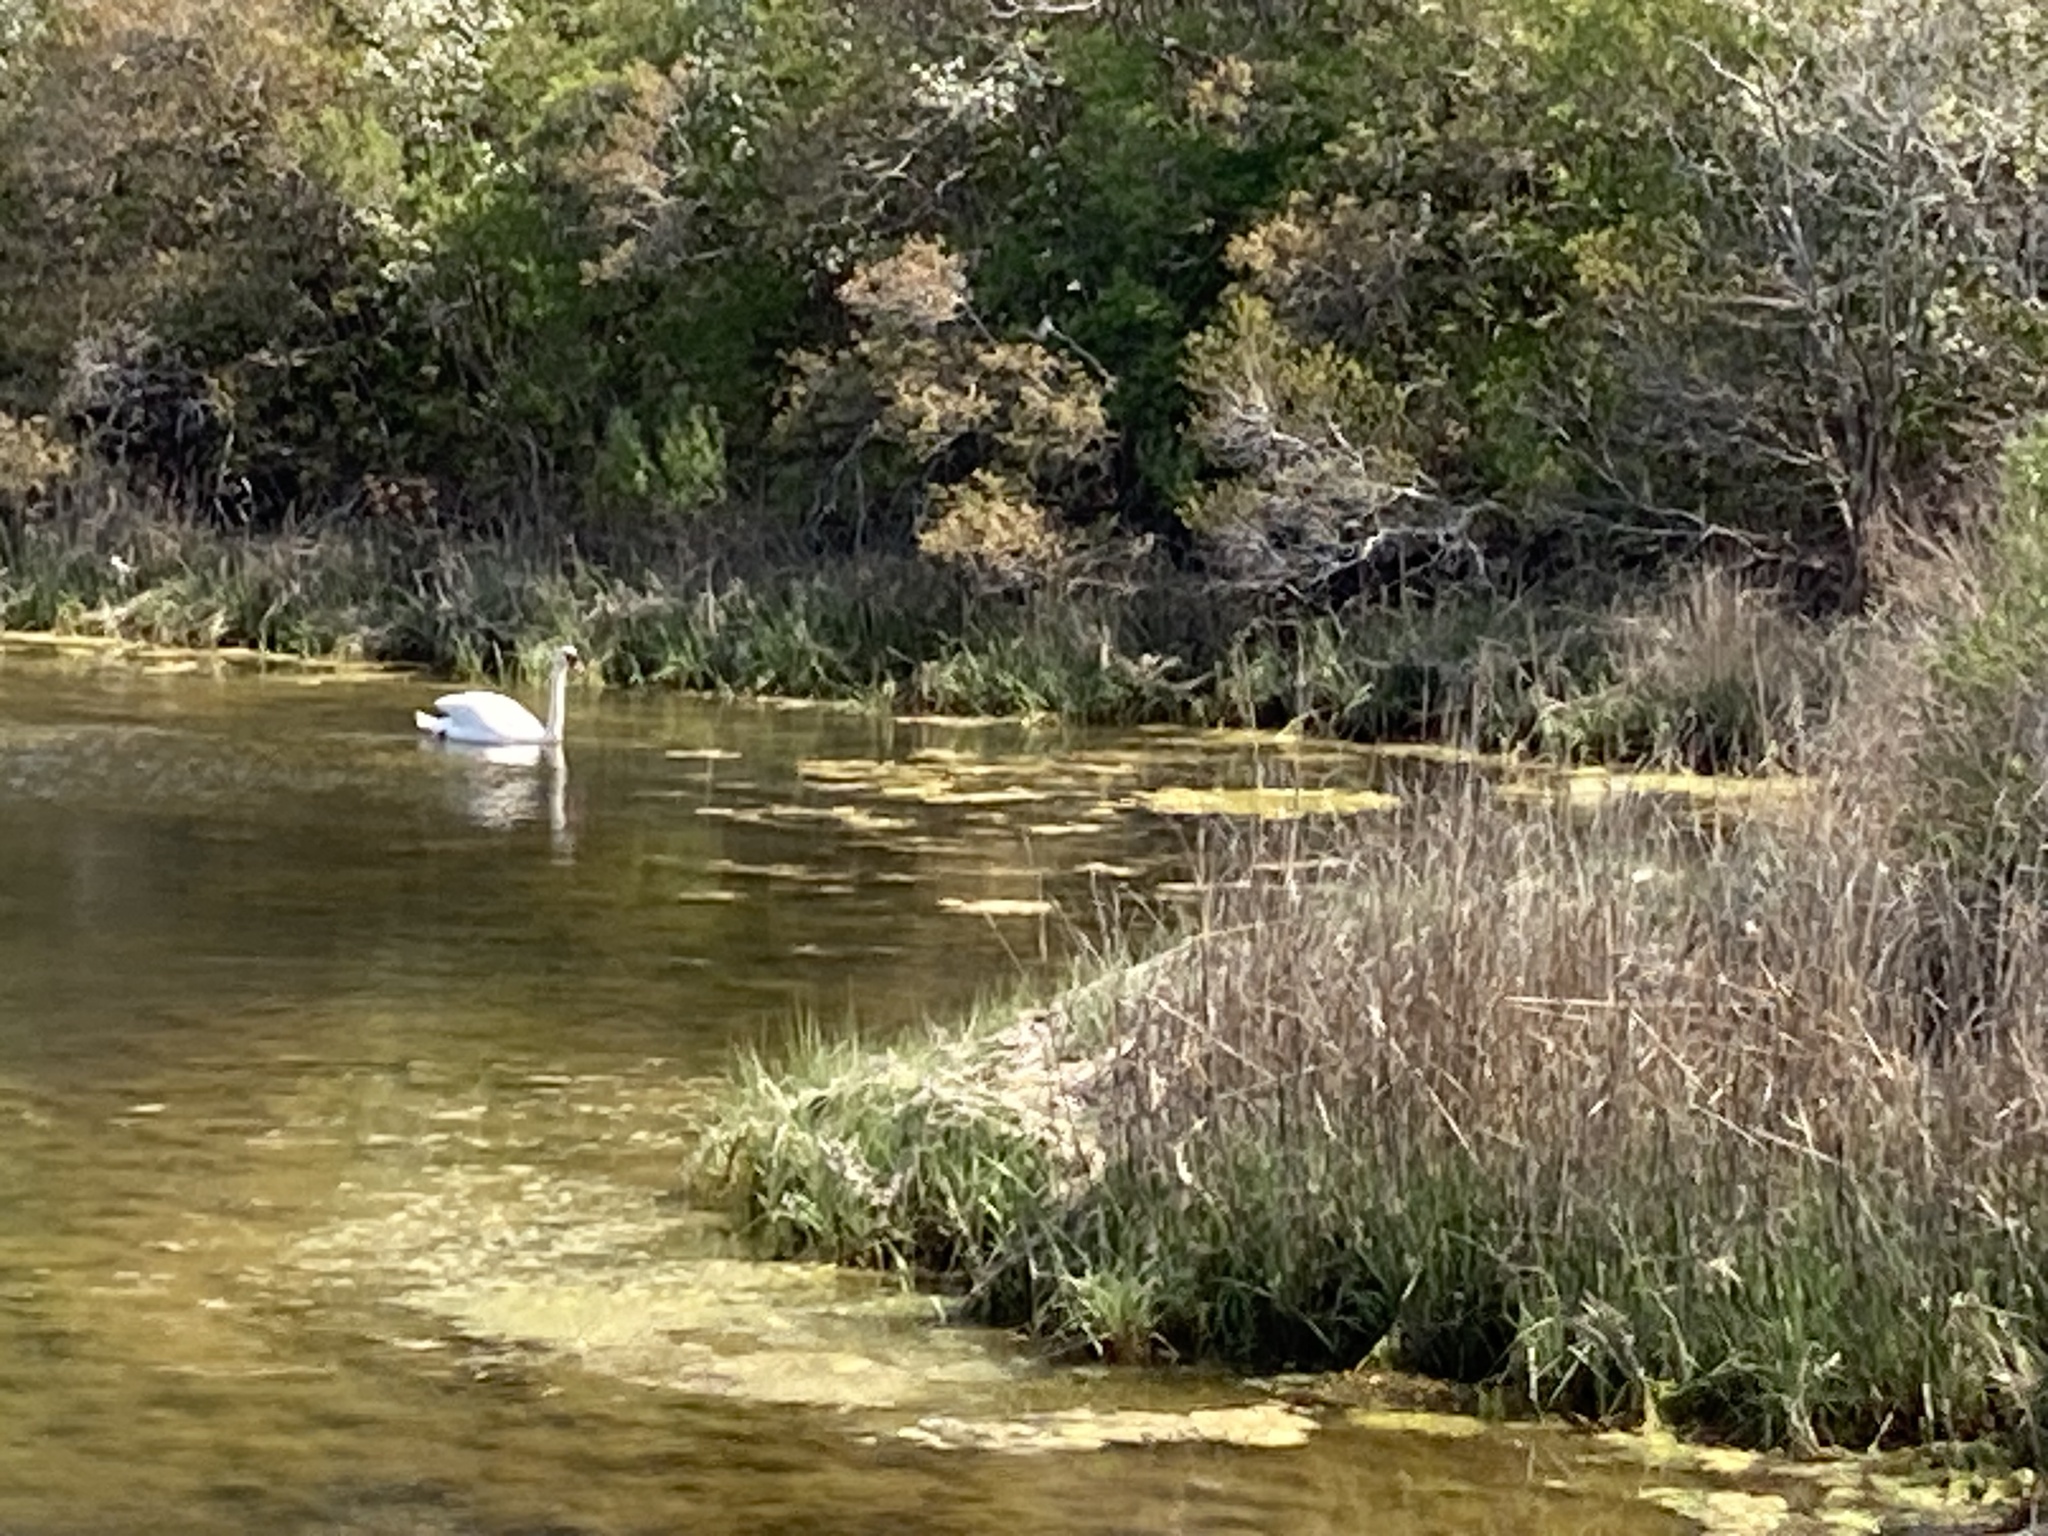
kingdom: Animalia
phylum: Chordata
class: Aves
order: Anseriformes
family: Anatidae
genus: Cygnus
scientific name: Cygnus olor
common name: Mute swan
